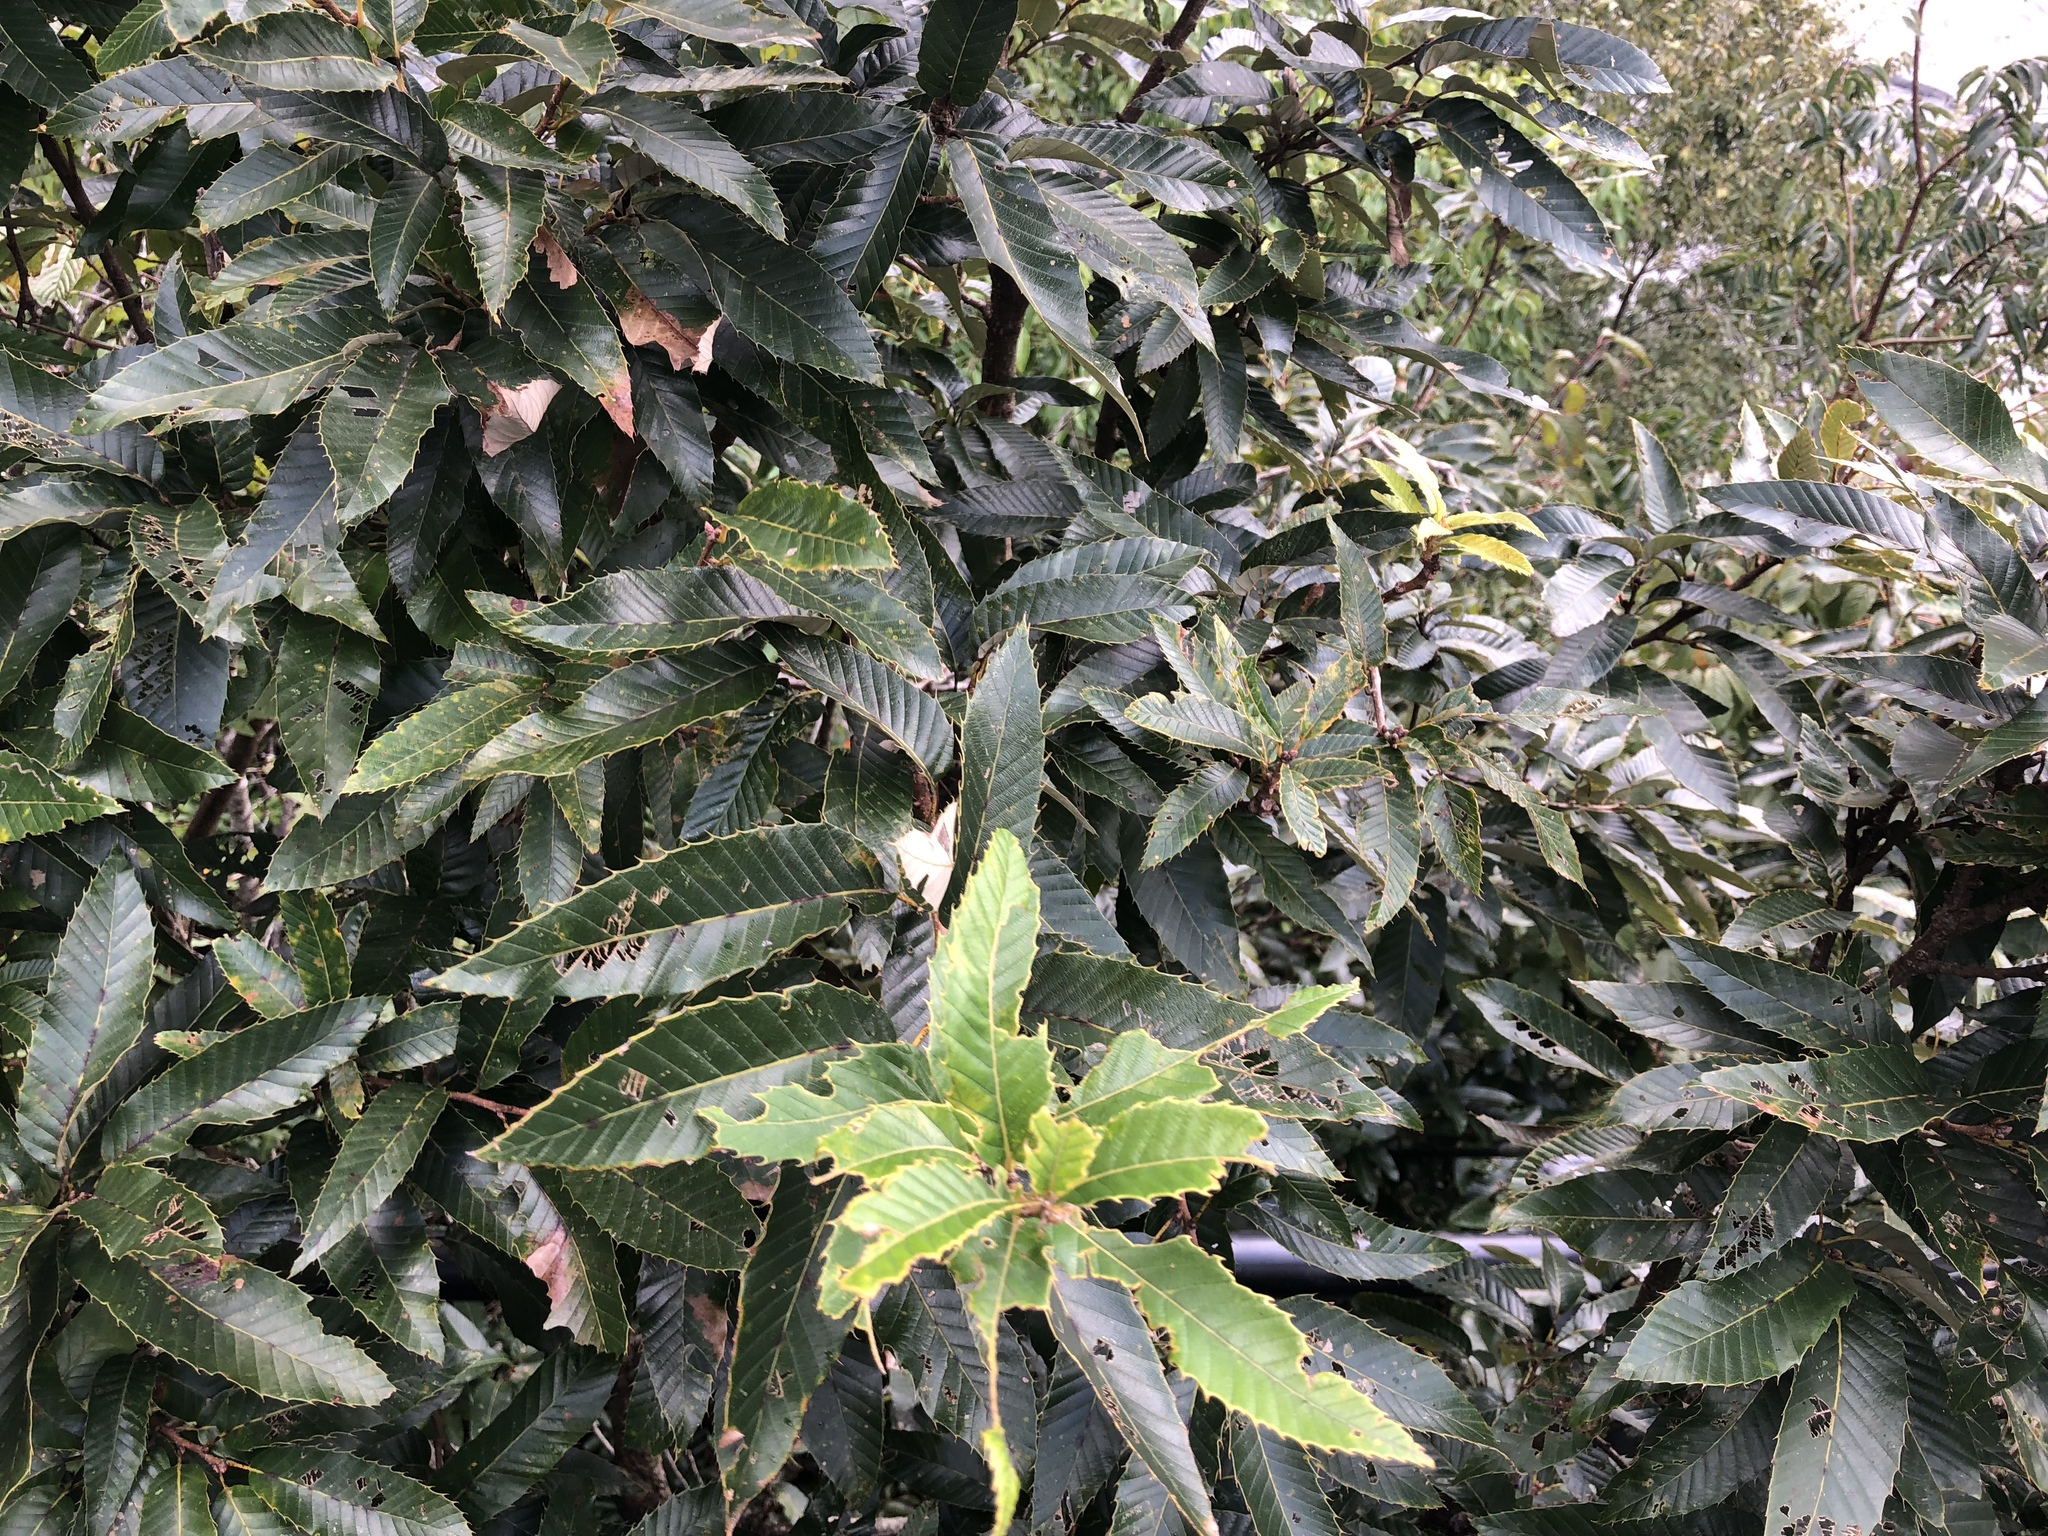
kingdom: Plantae
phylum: Tracheophyta
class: Magnoliopsida
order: Fagales
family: Fagaceae
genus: Quercus
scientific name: Quercus variabilis
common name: Chinese cork oak
